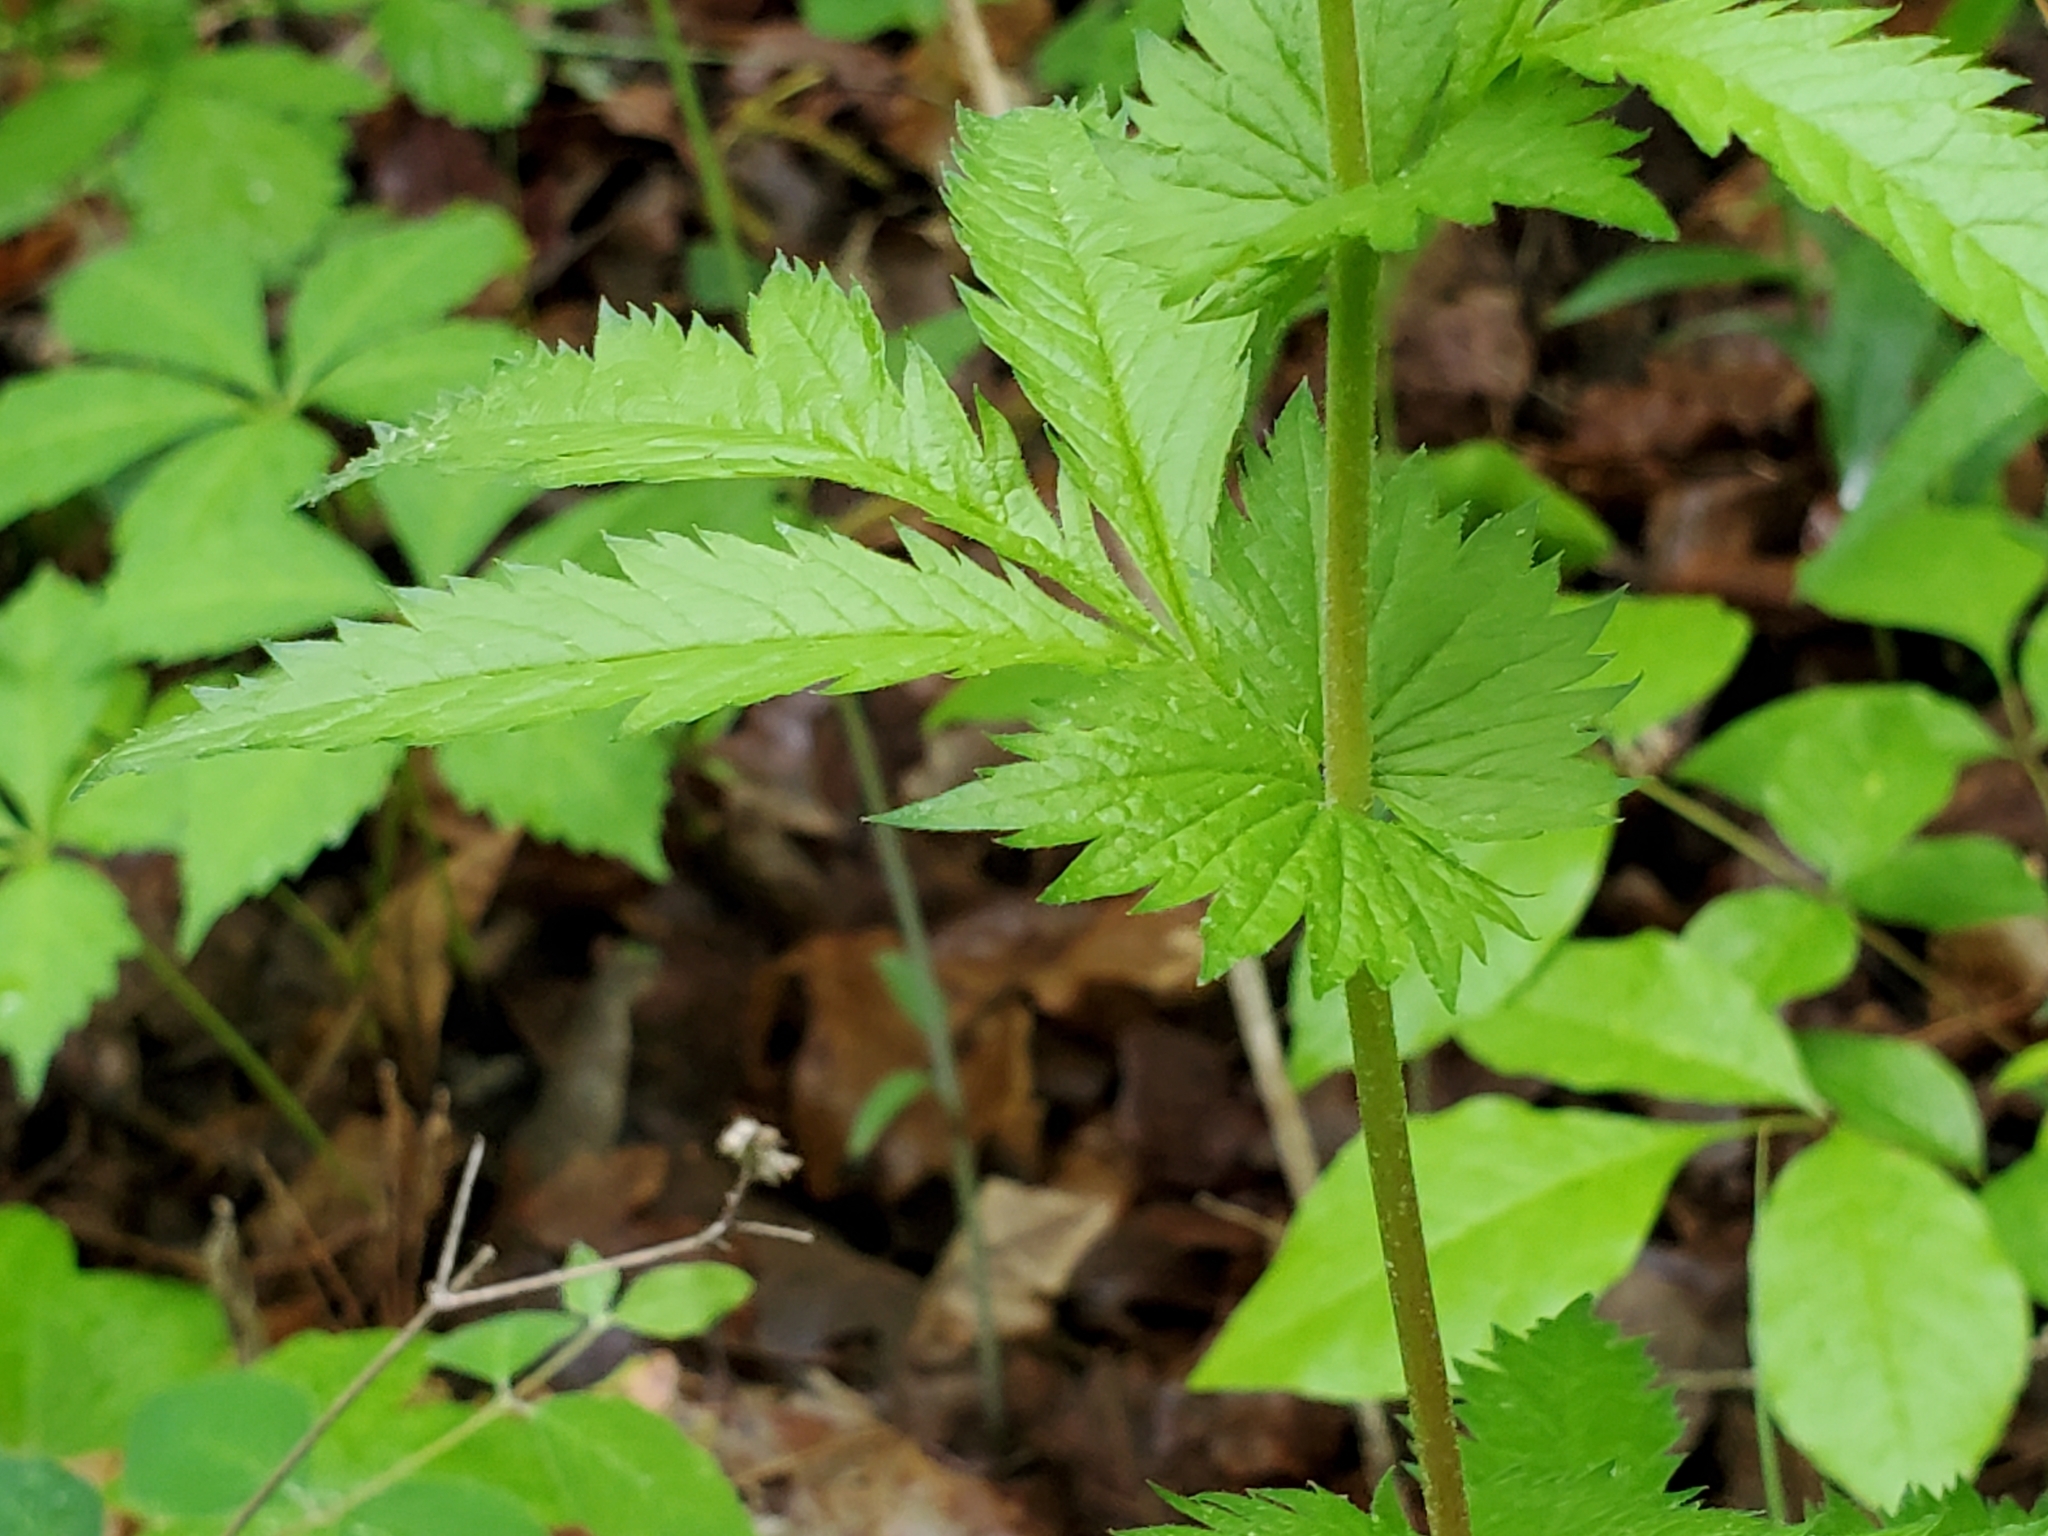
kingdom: Plantae
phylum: Tracheophyta
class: Magnoliopsida
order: Rosales
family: Rosaceae
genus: Gillenia
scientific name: Gillenia stipulata
